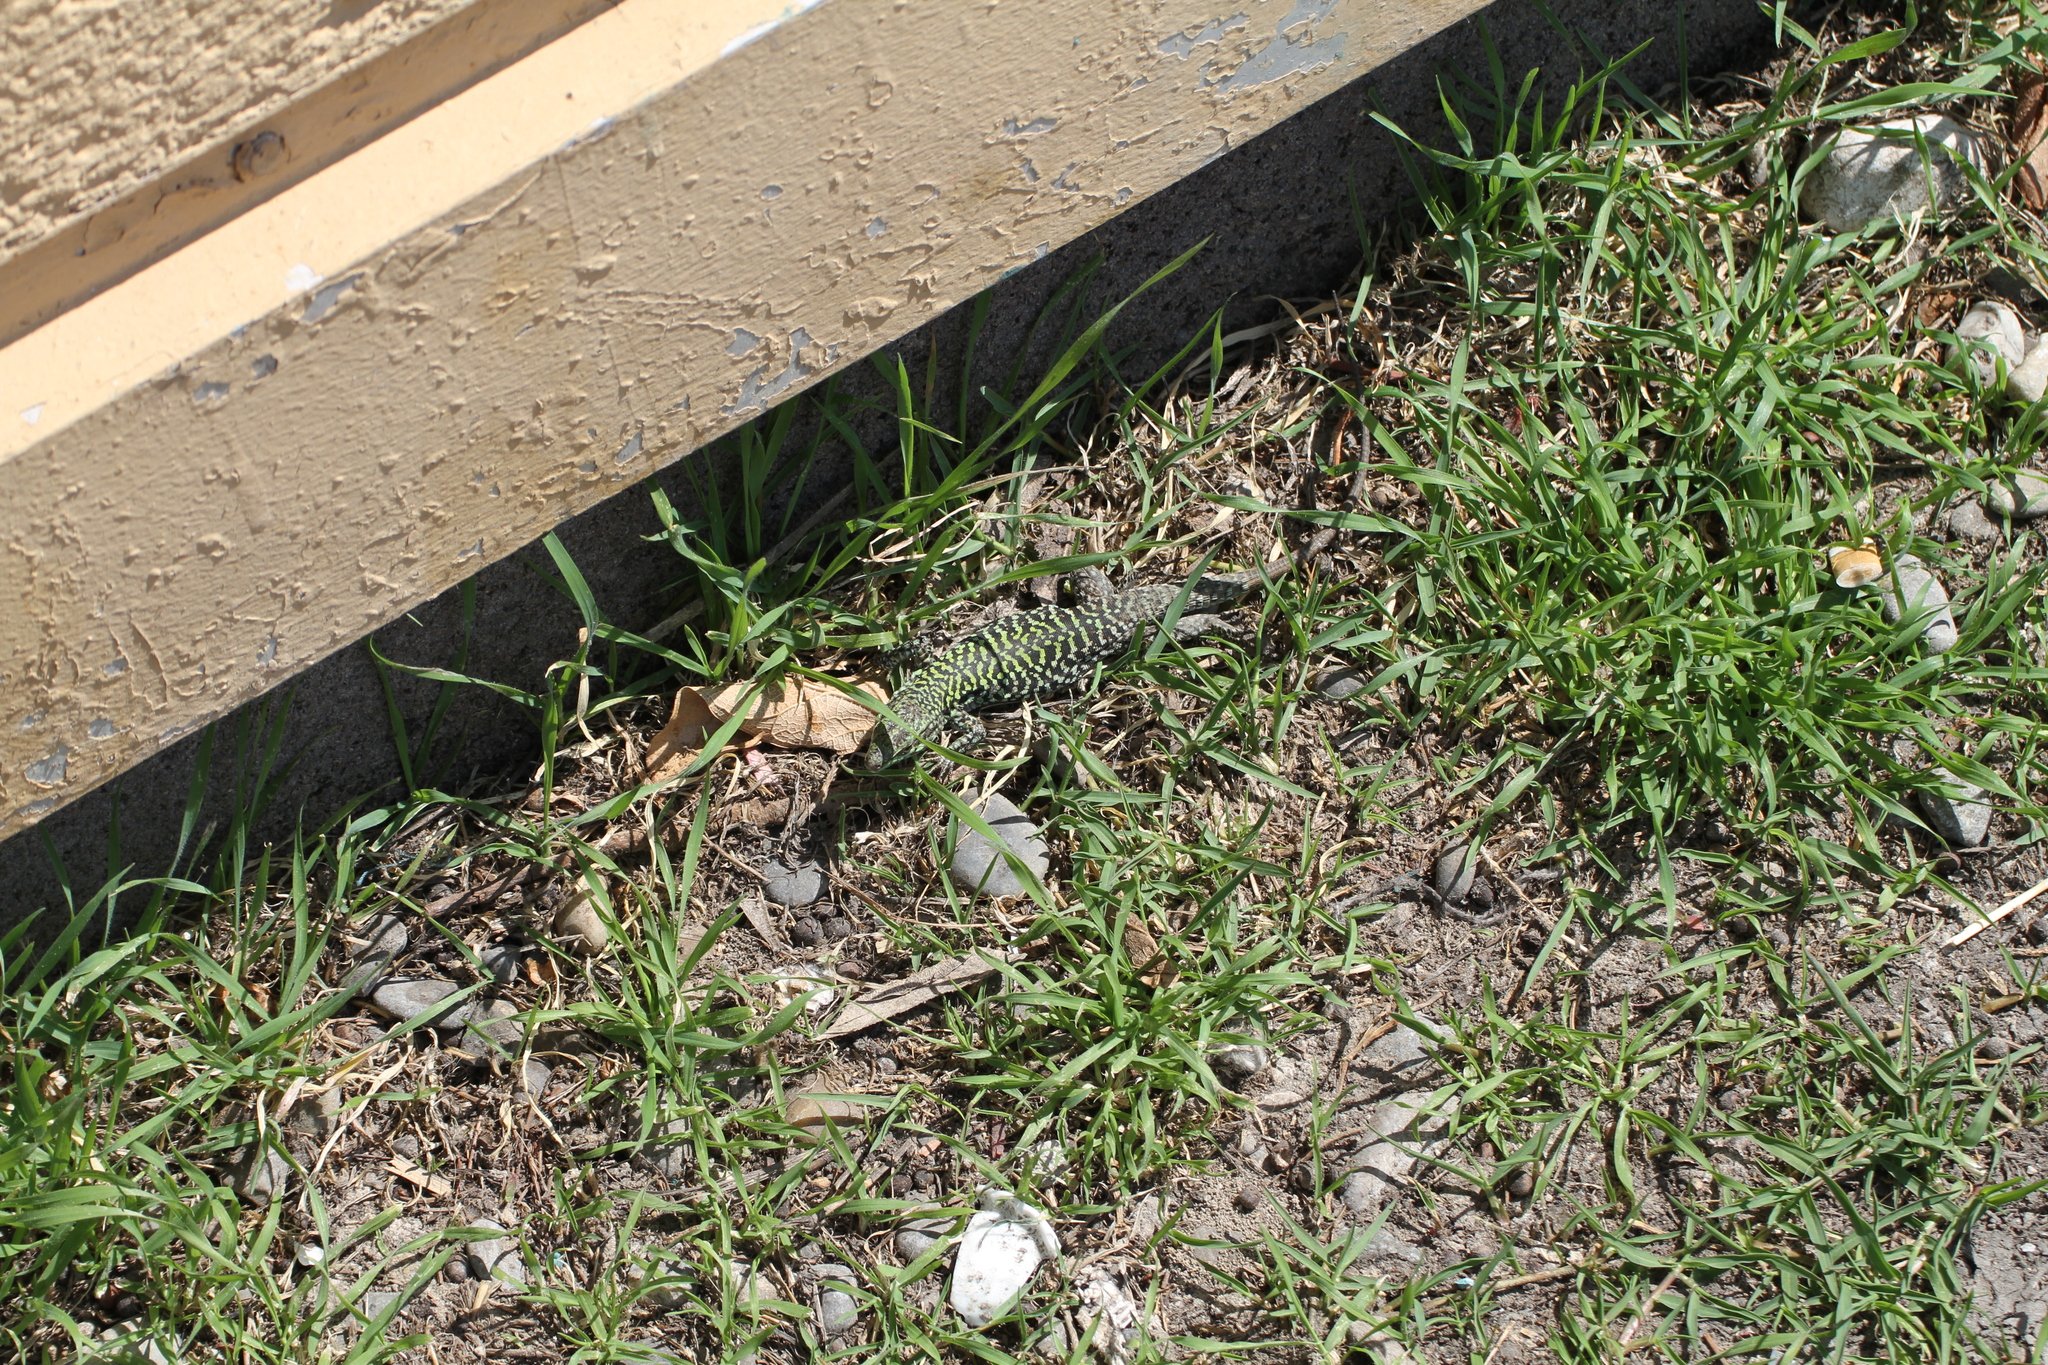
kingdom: Animalia
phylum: Chordata
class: Squamata
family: Lacertidae
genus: Podarcis
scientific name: Podarcis siculus
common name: Italian wall lizard
